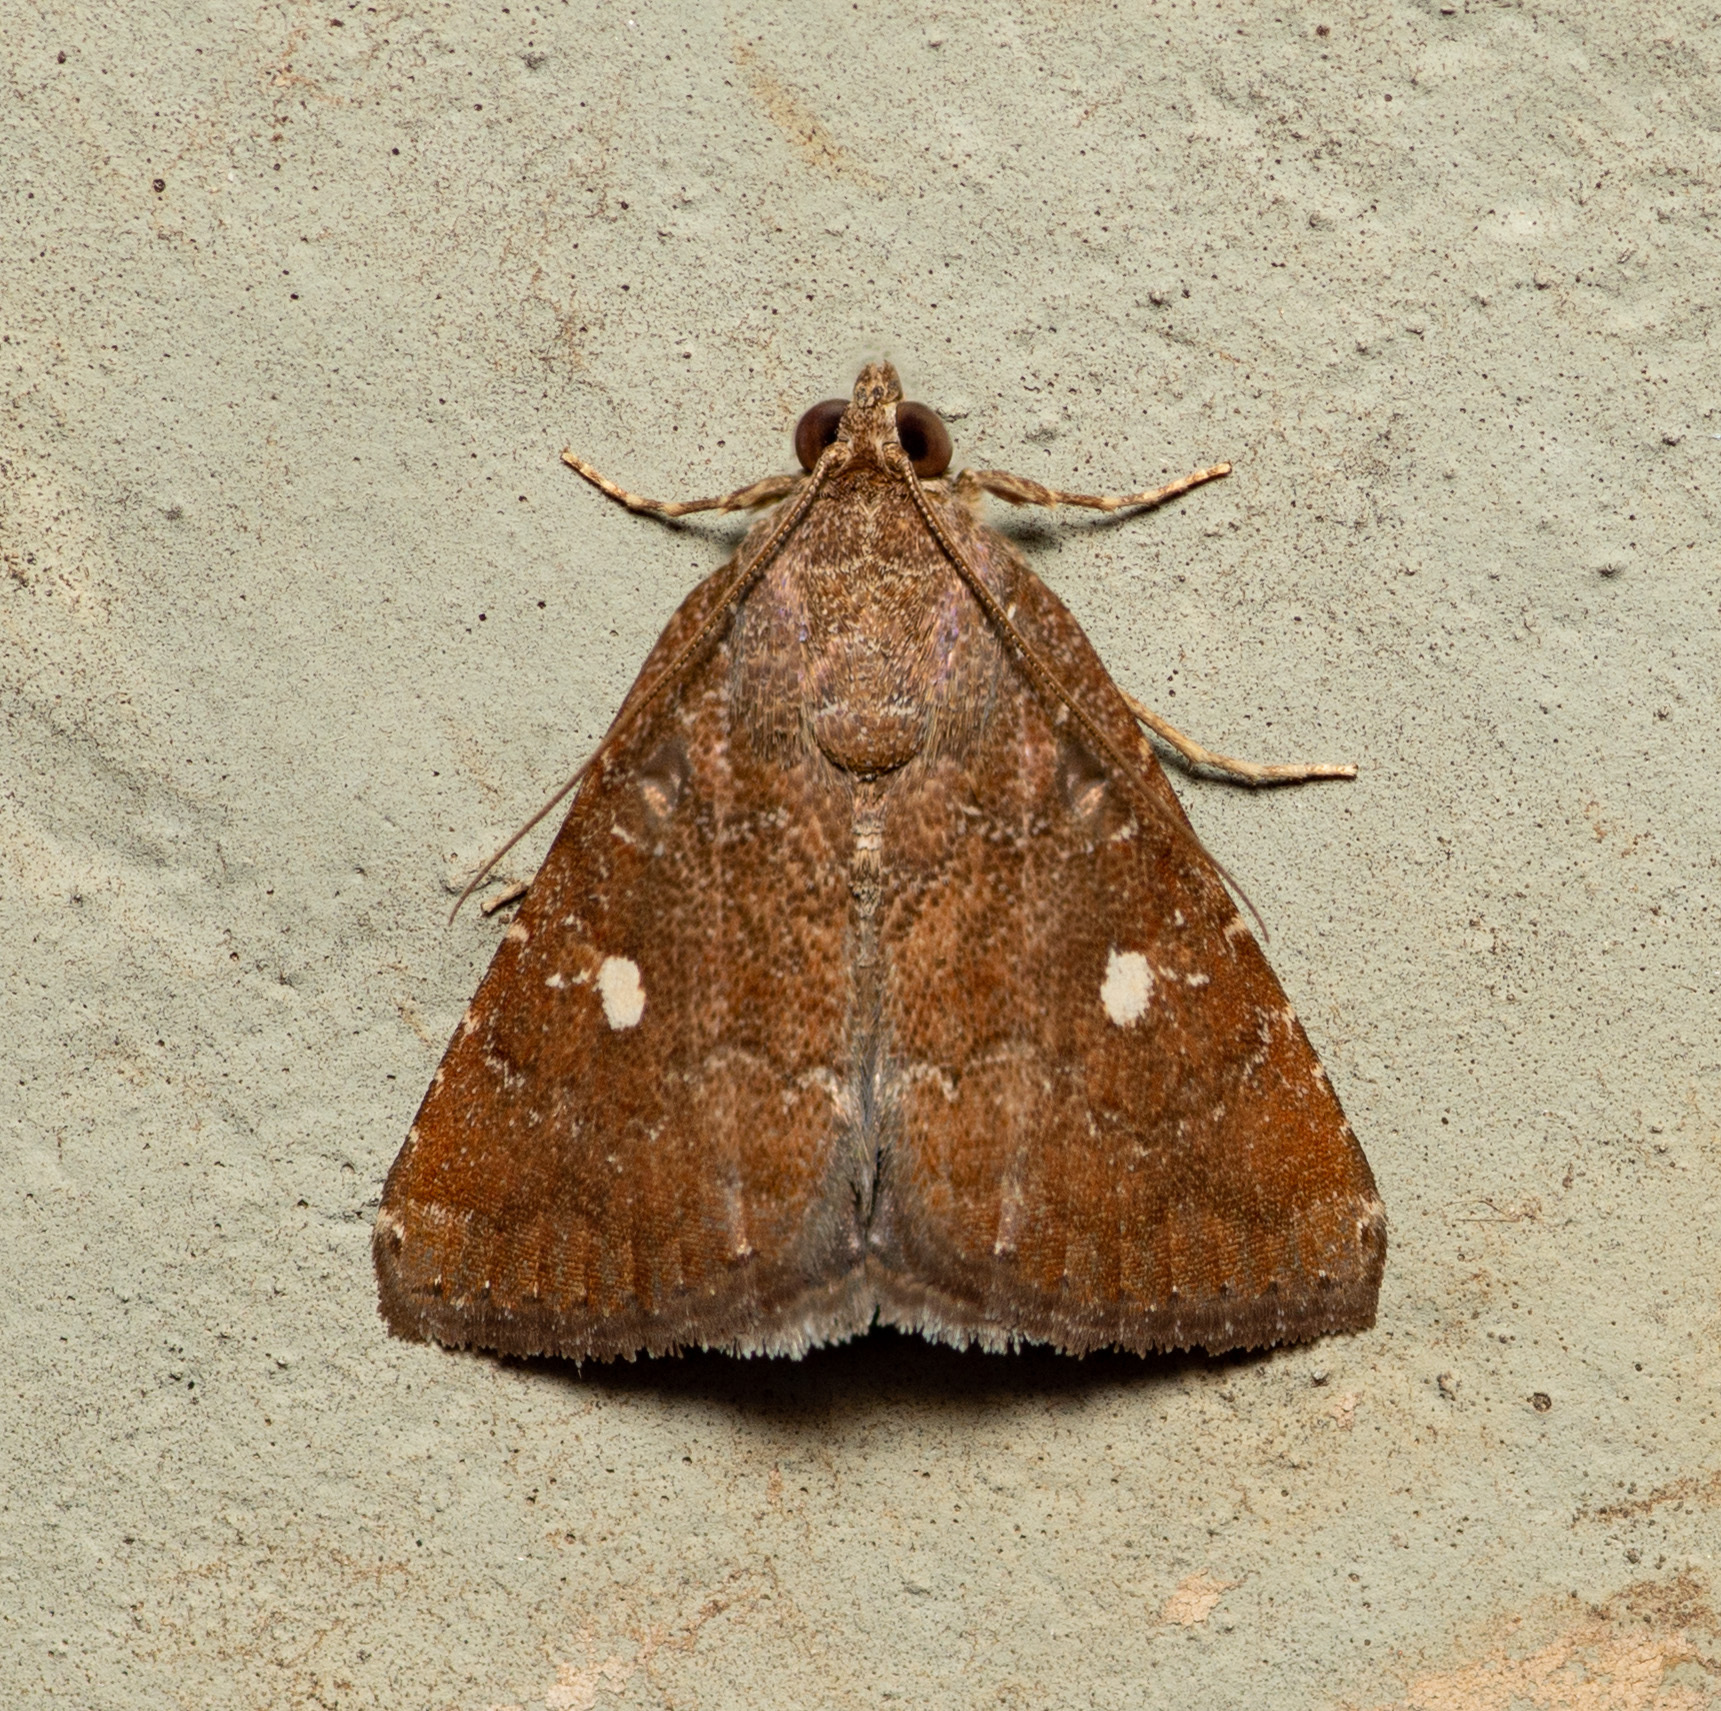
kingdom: Animalia
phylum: Arthropoda
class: Insecta
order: Lepidoptera
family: Noctuidae
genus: Amyna
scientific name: Amyna stricta
